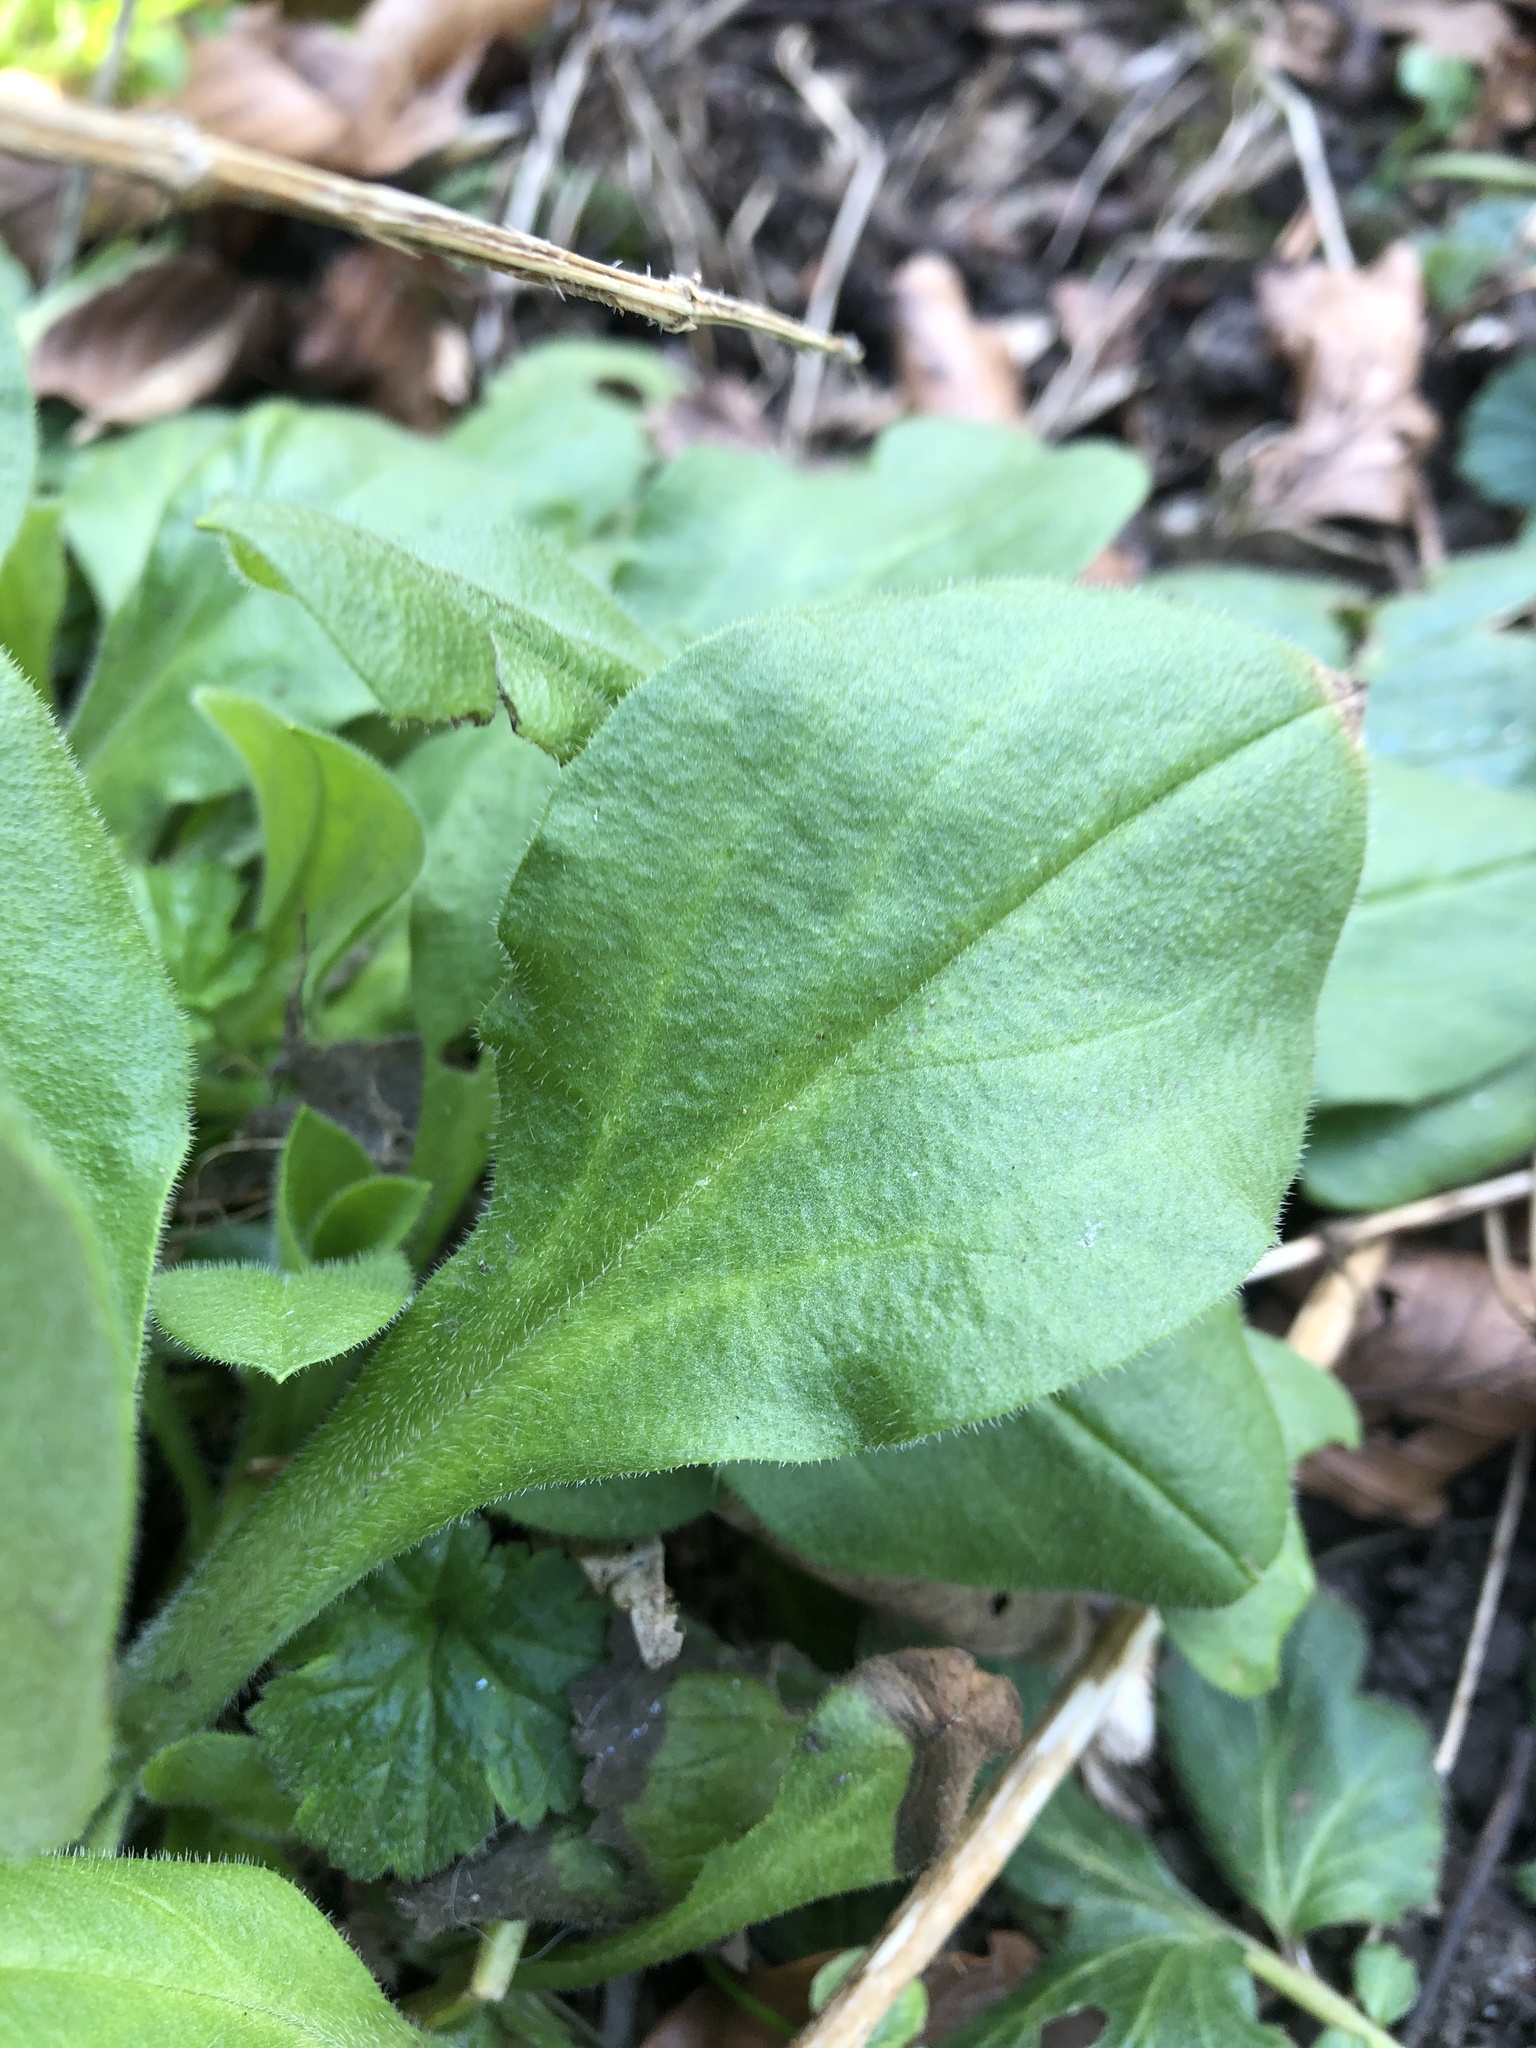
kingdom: Plantae
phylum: Tracheophyta
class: Magnoliopsida
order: Caryophyllales
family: Caryophyllaceae
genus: Silene
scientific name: Silene dioica
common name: Red campion
